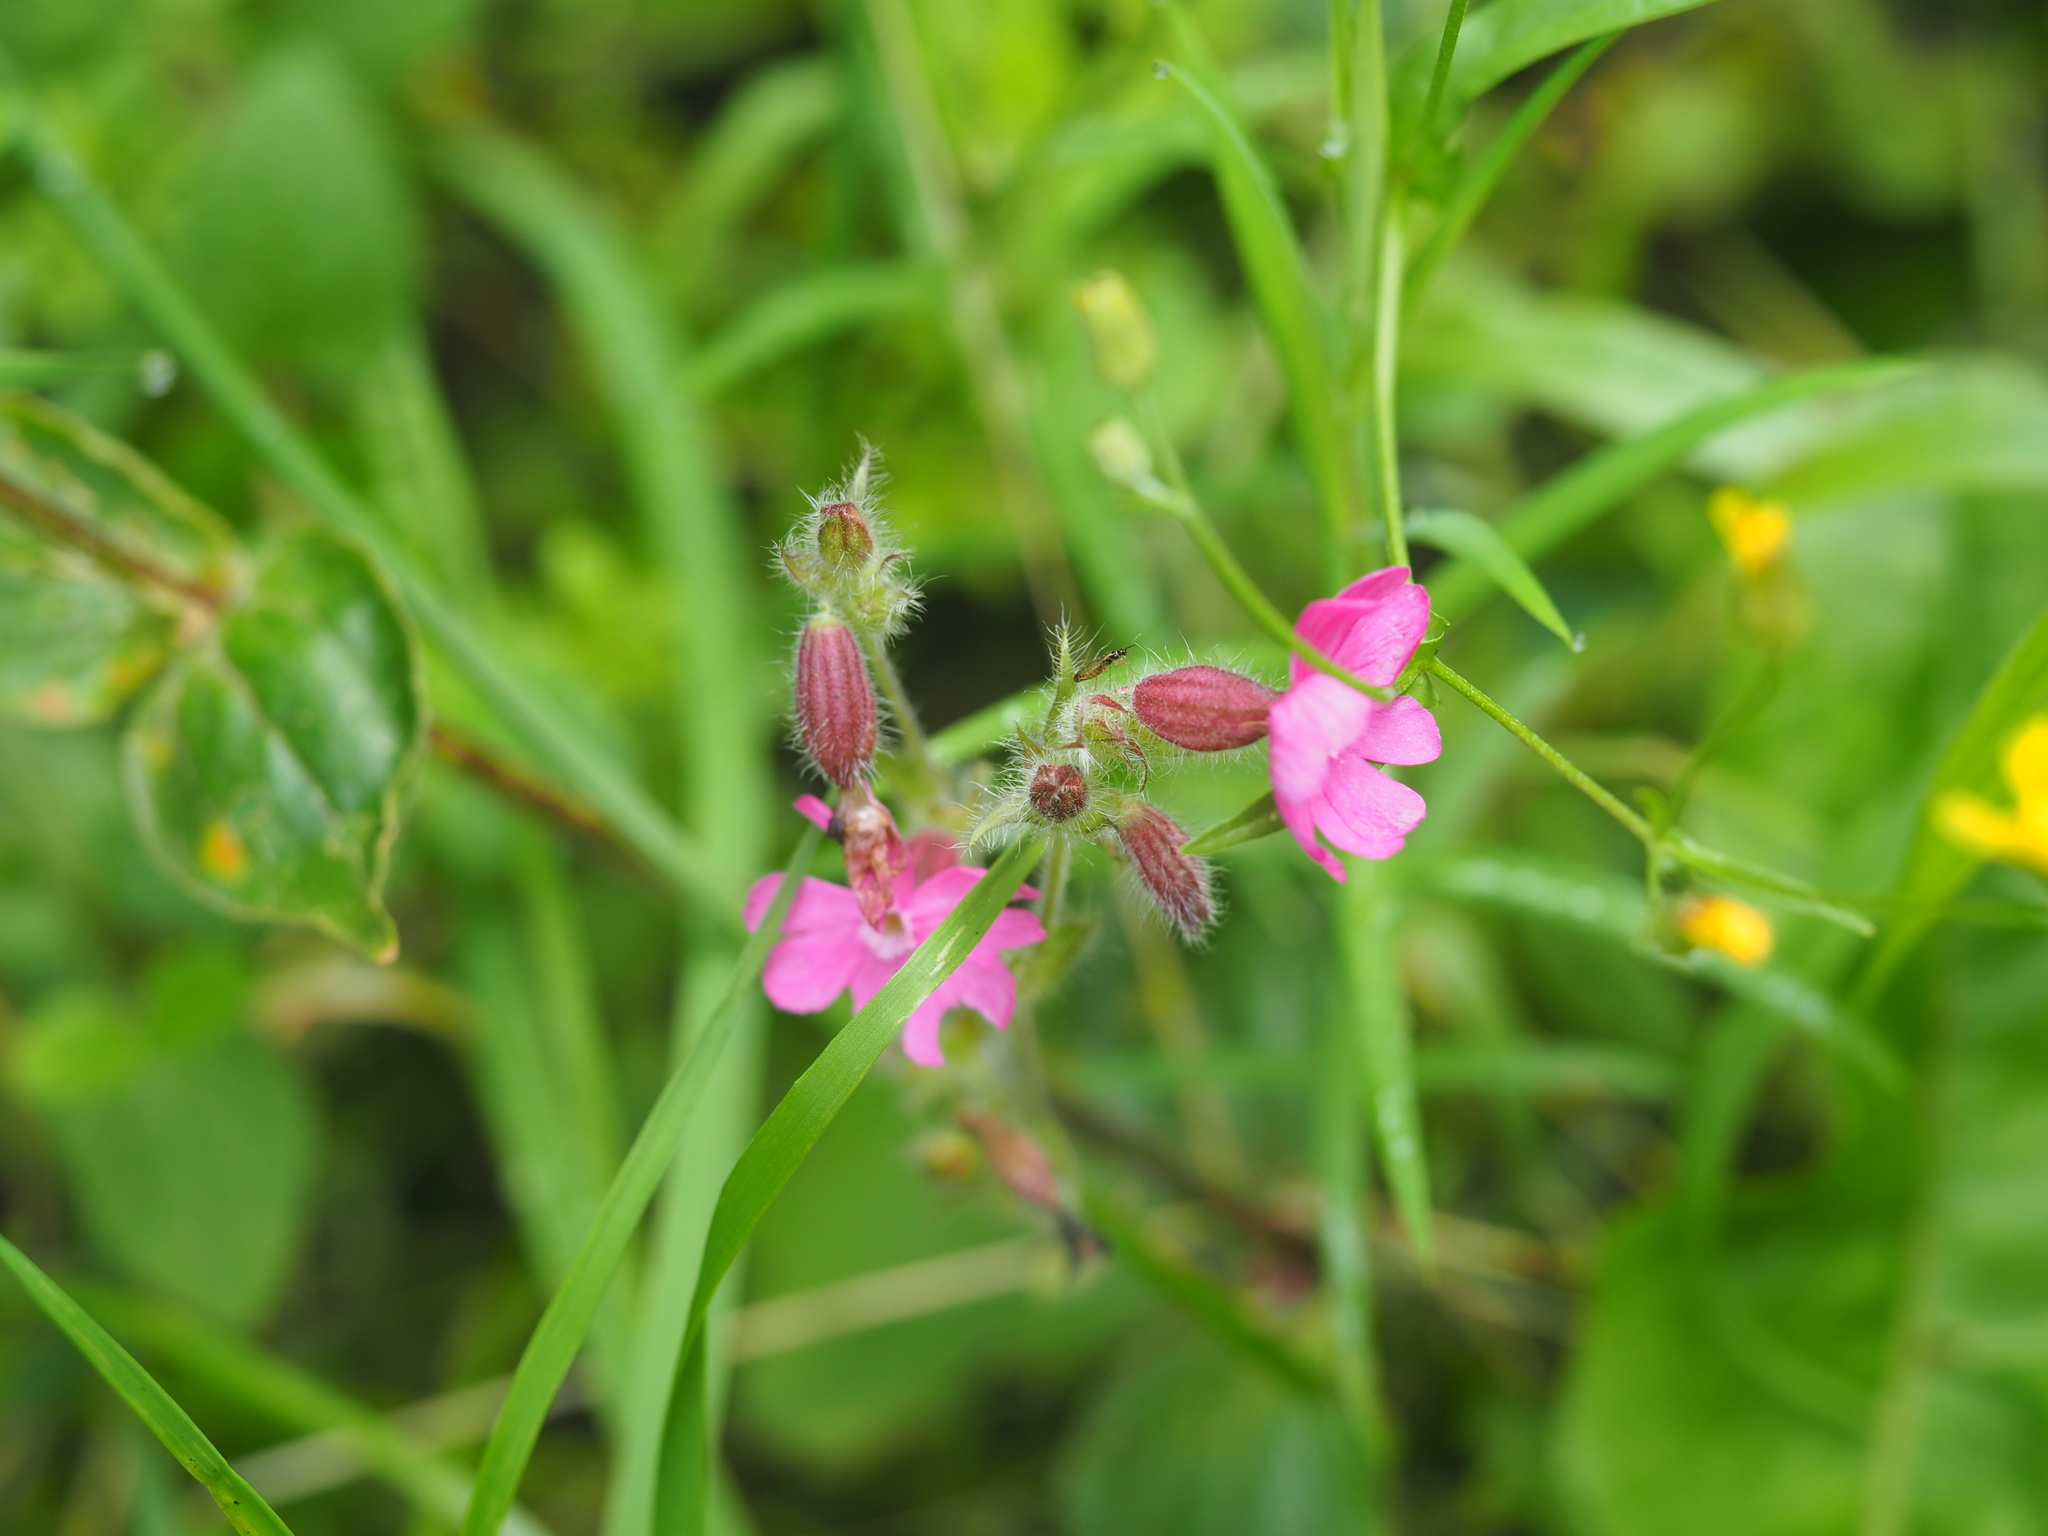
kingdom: Plantae
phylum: Tracheophyta
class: Magnoliopsida
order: Caryophyllales
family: Caryophyllaceae
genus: Silene
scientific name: Silene dioica
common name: Red campion
